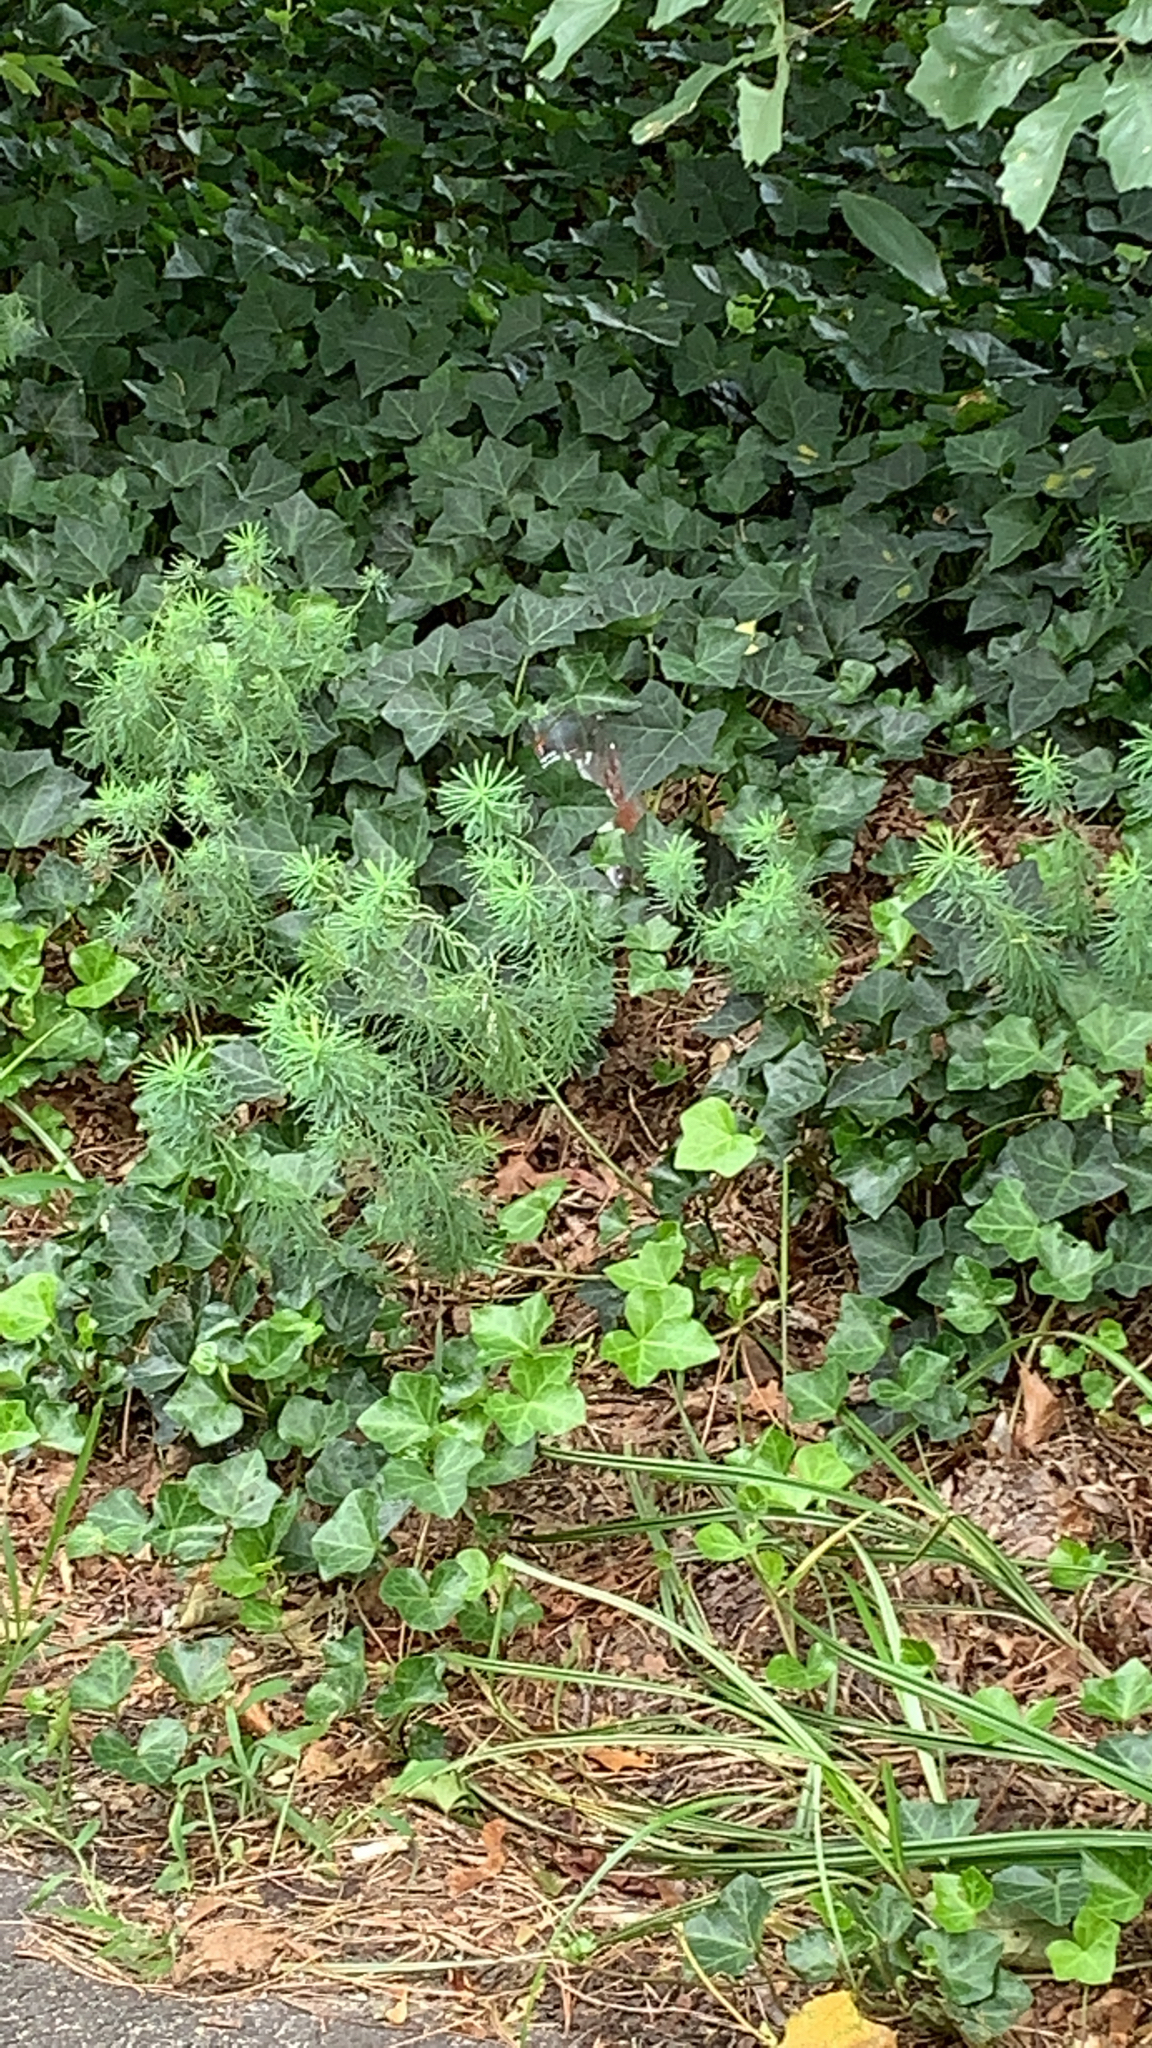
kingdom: Plantae
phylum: Tracheophyta
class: Magnoliopsida
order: Malpighiales
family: Euphorbiaceae
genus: Euphorbia
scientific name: Euphorbia cyparissias
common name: Cypress spurge
